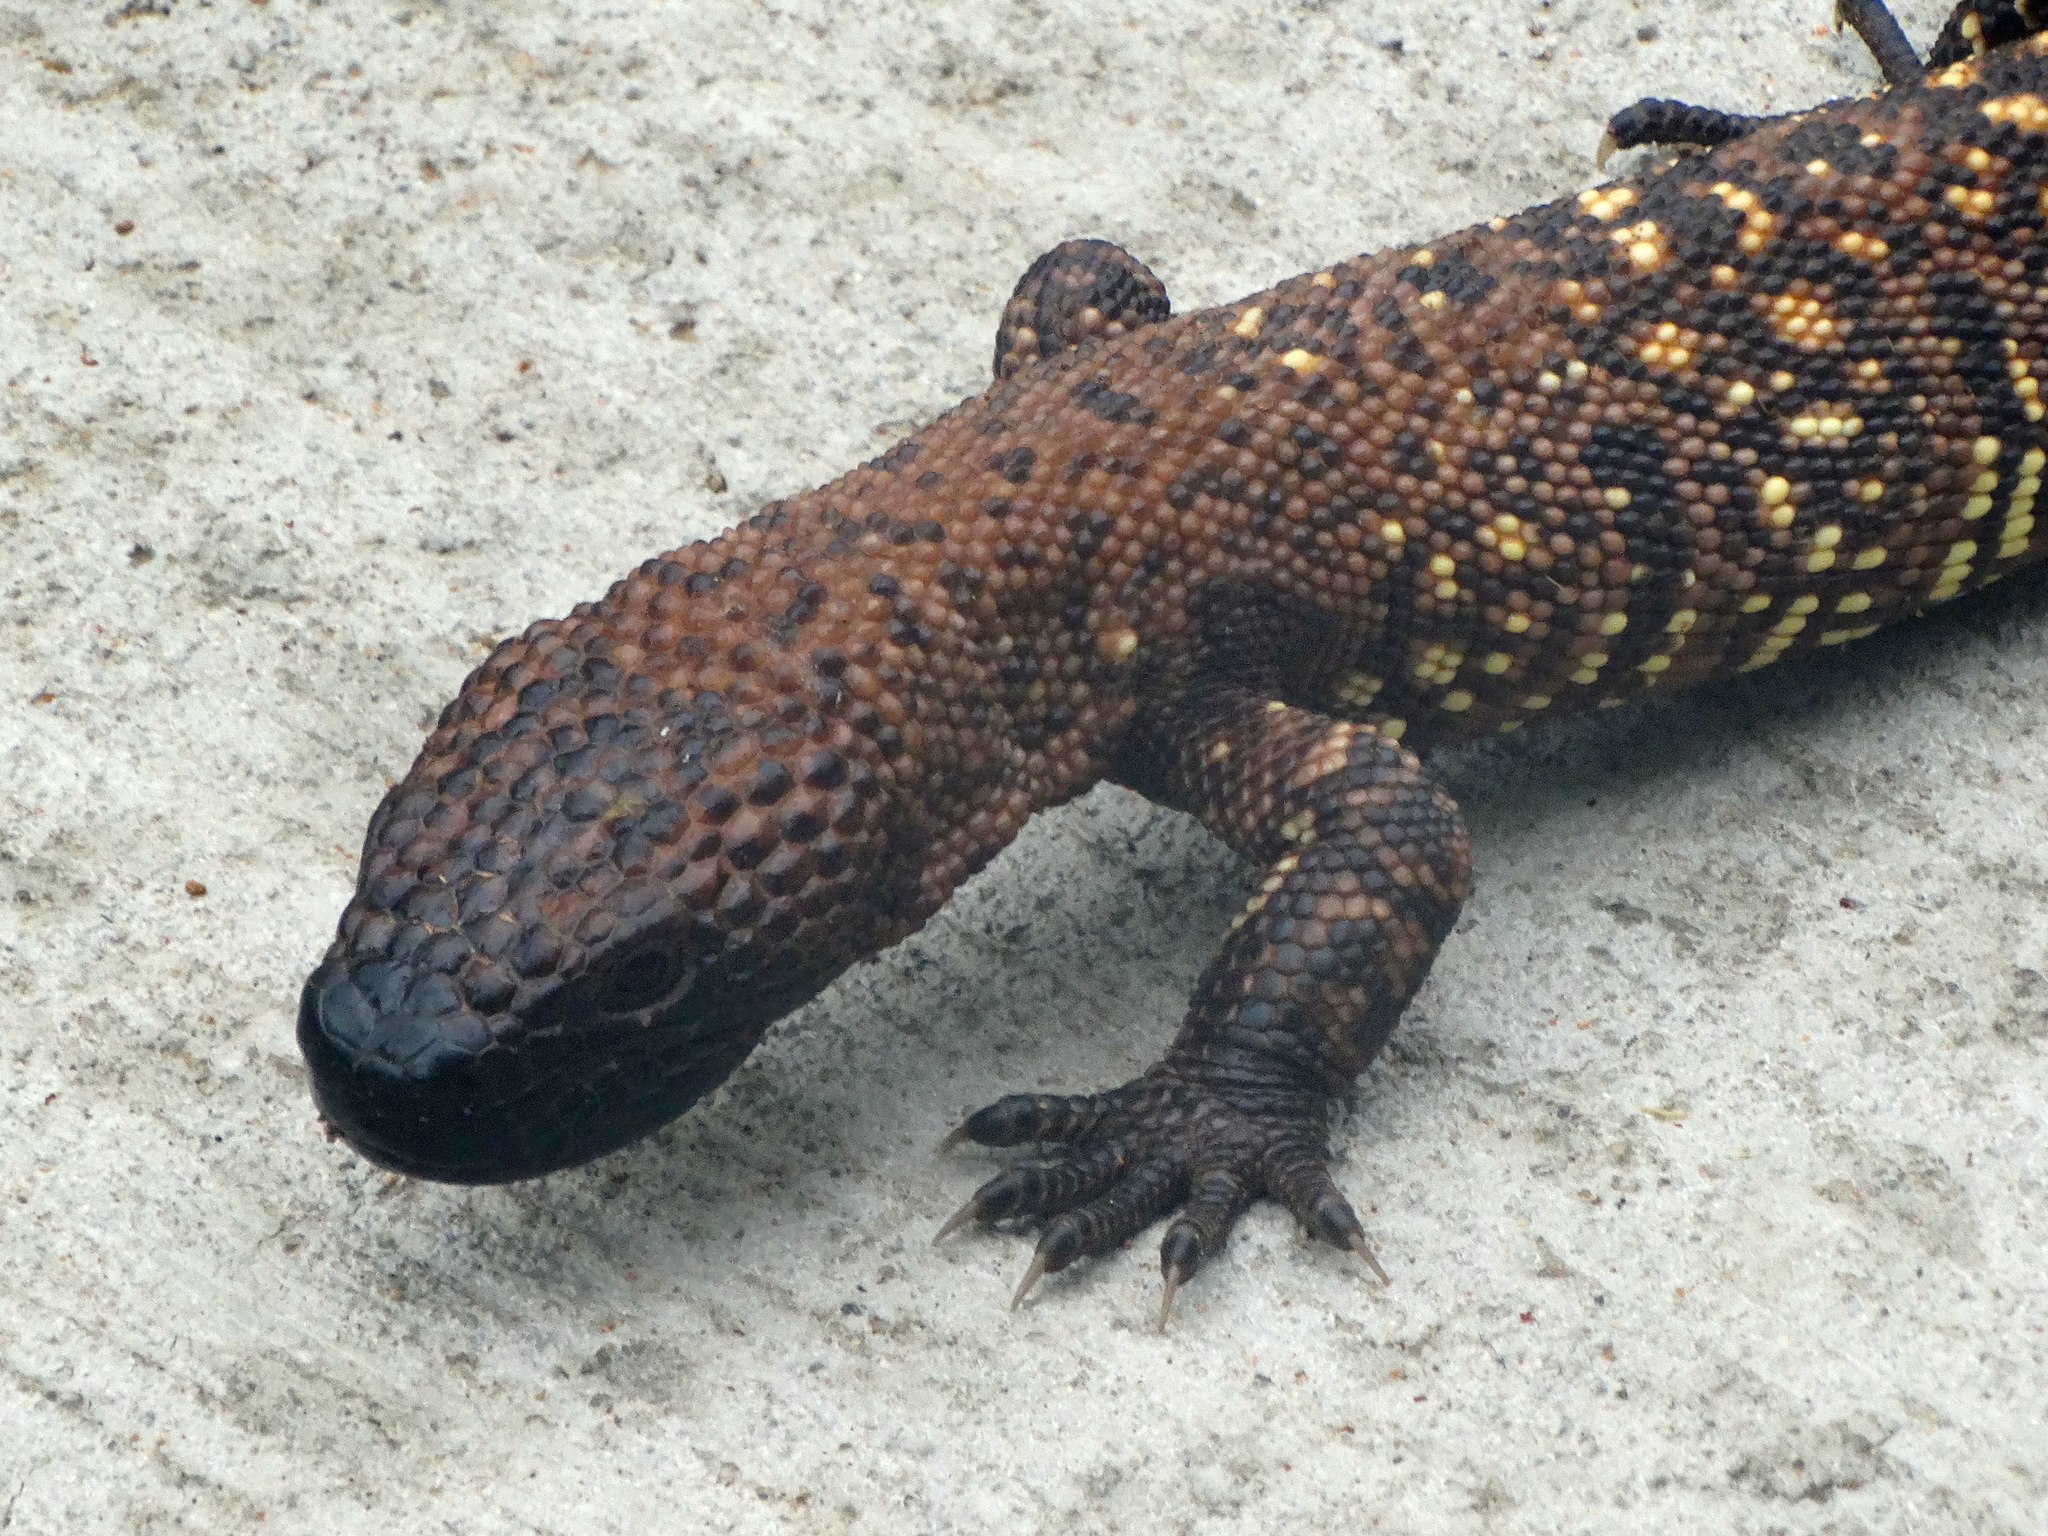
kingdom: Animalia
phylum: Chordata
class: Squamata
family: Helodermatidae
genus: Heloderma
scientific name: Heloderma horridum
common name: Mexican beaded lizard
